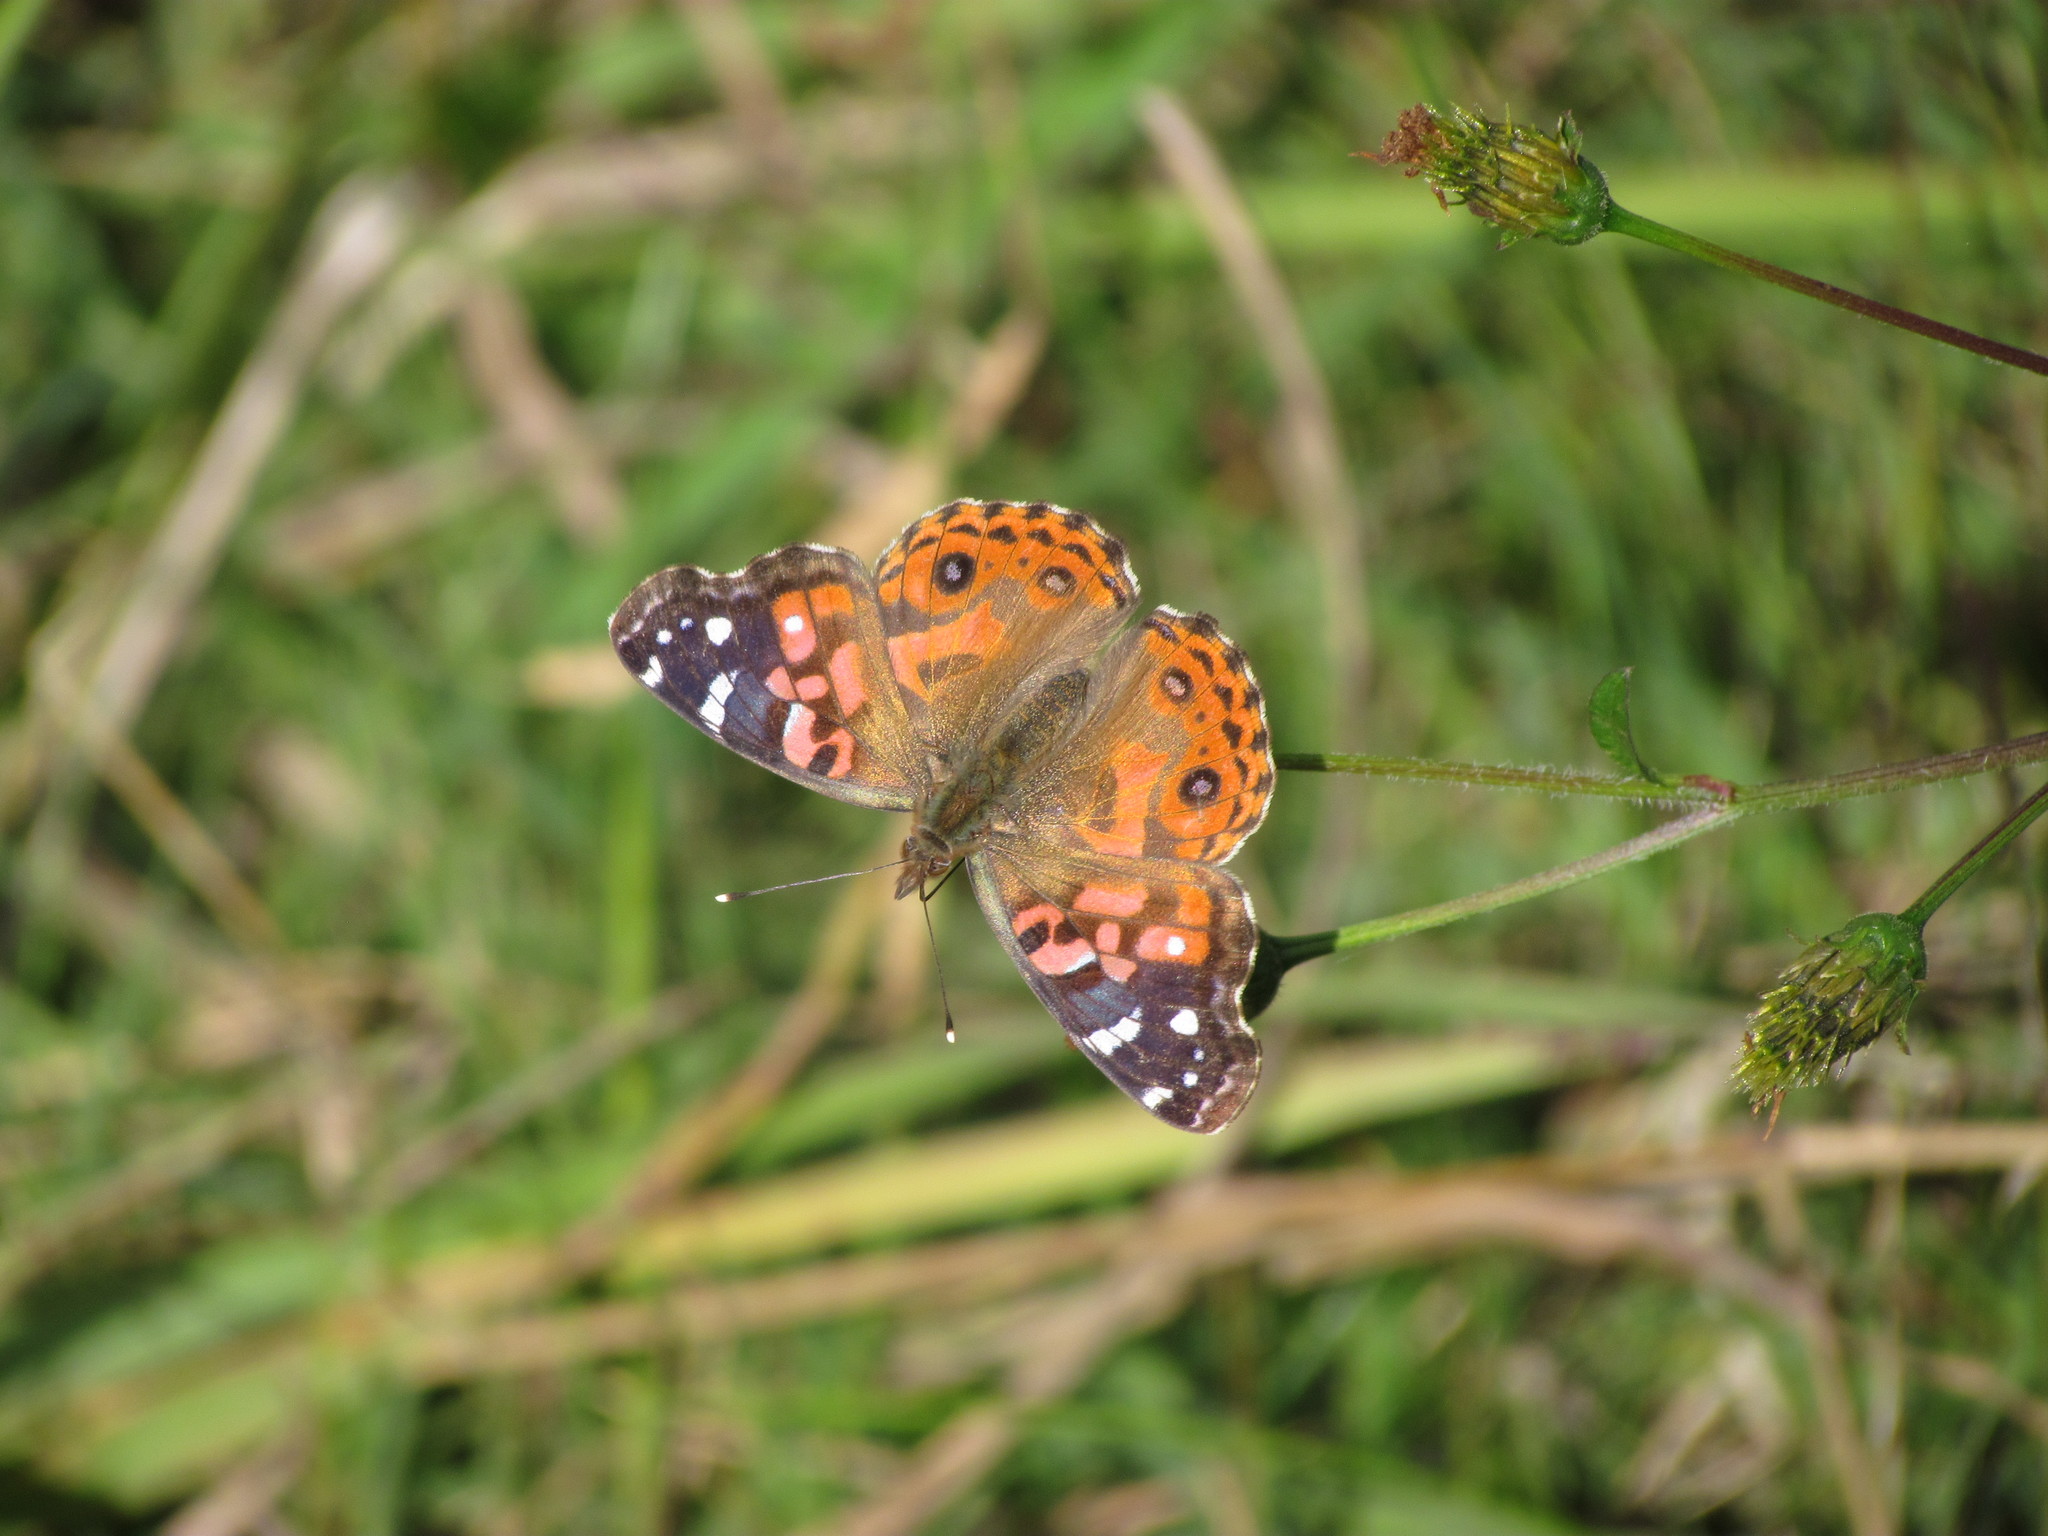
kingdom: Animalia
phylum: Arthropoda
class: Insecta
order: Lepidoptera
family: Nymphalidae
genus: Vanessa
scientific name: Vanessa braziliensis
